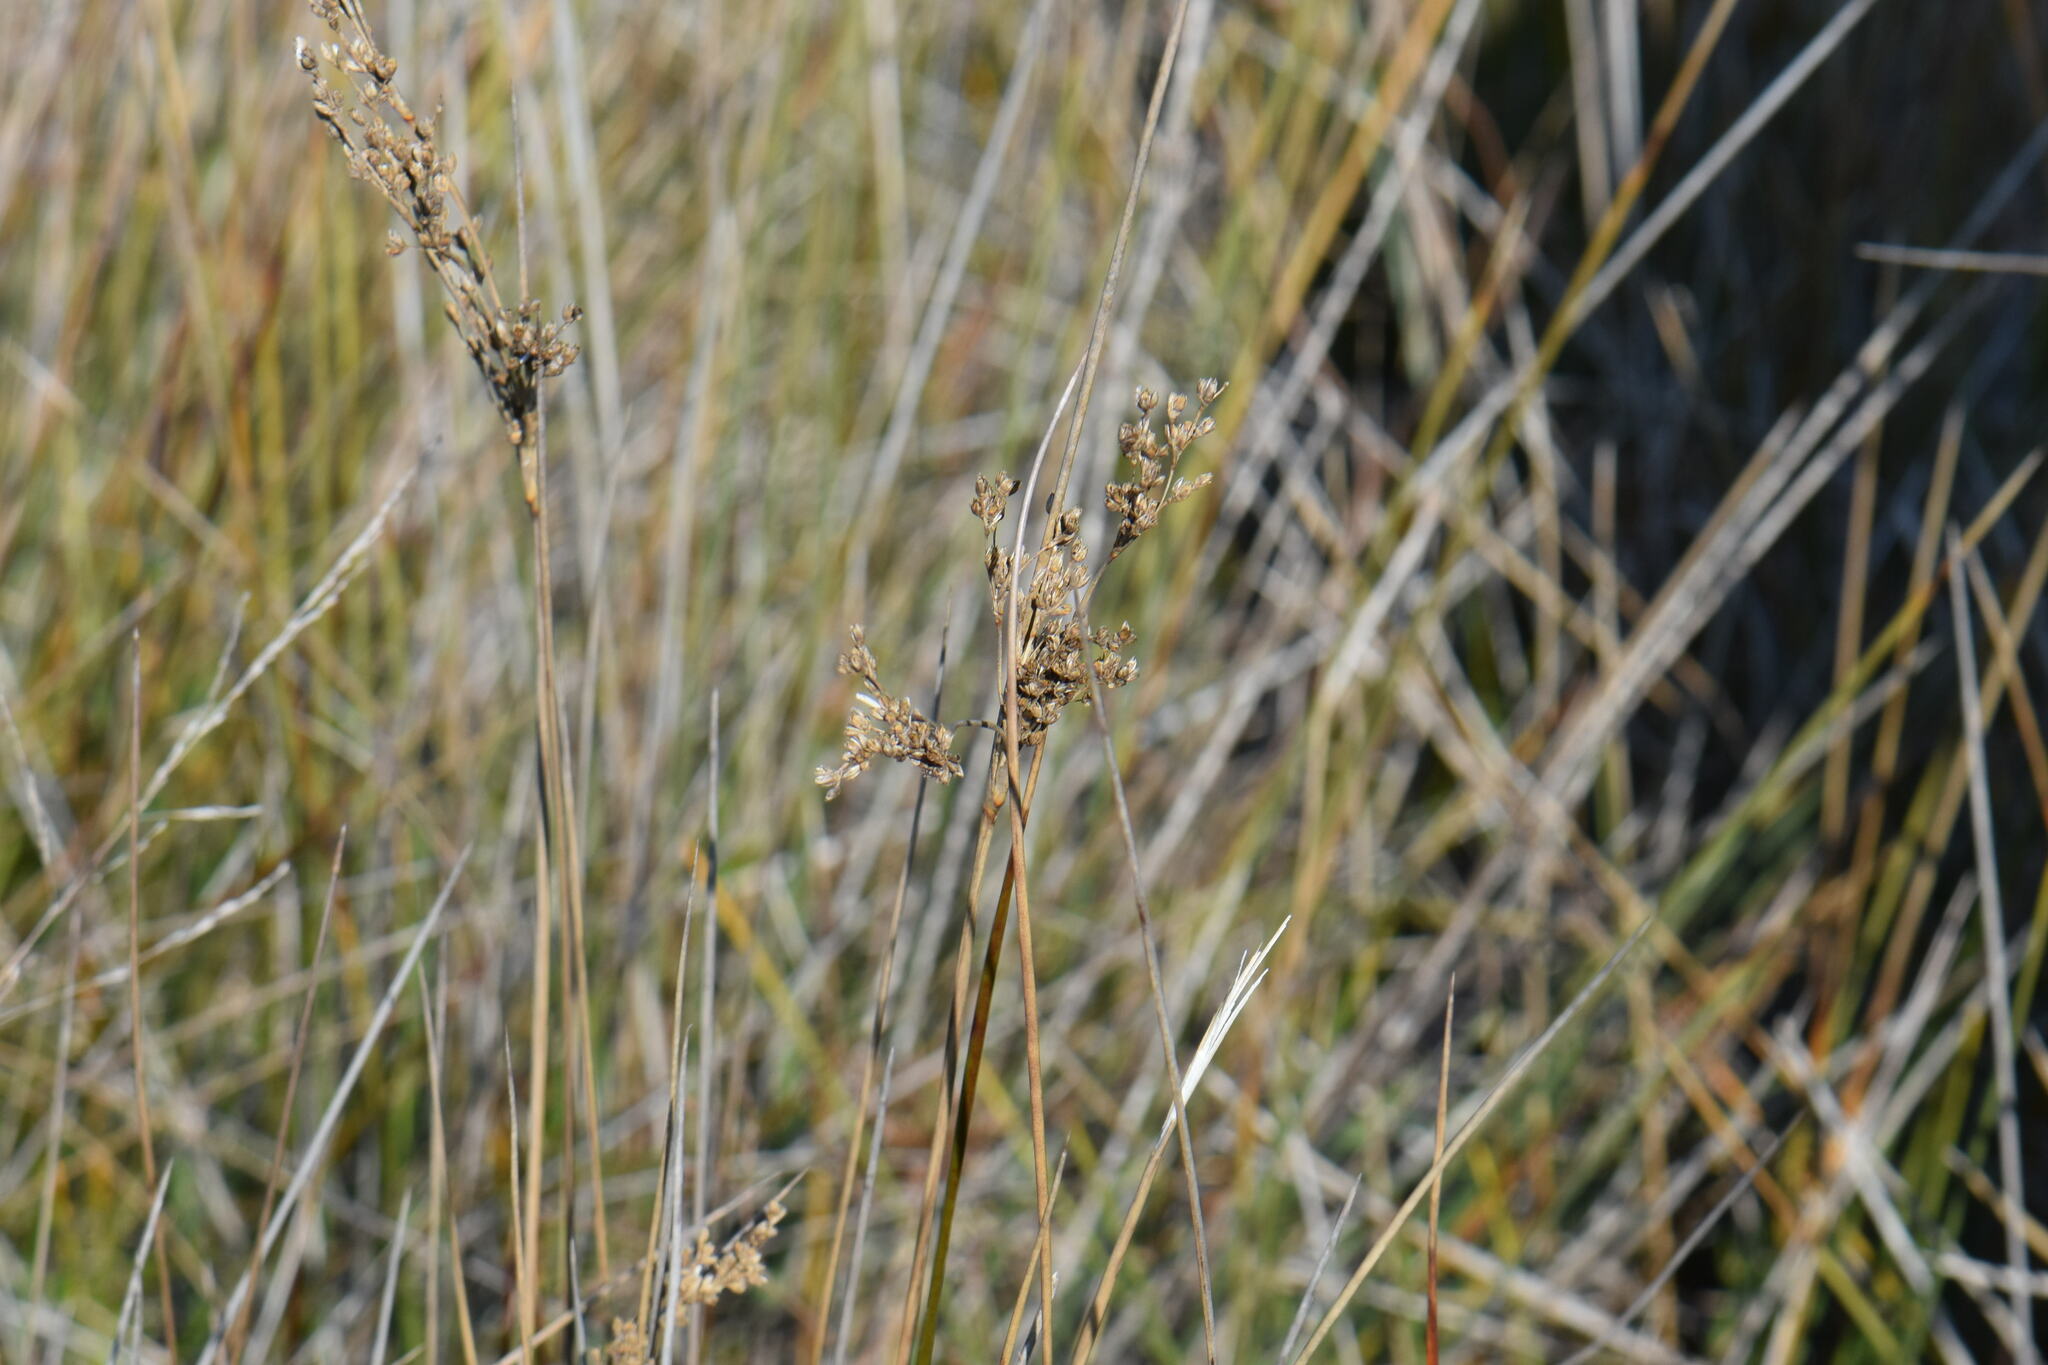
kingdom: Plantae
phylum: Tracheophyta
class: Liliopsida
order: Poales
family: Juncaceae
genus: Juncus
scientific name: Juncus maritimus
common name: Sea rush
